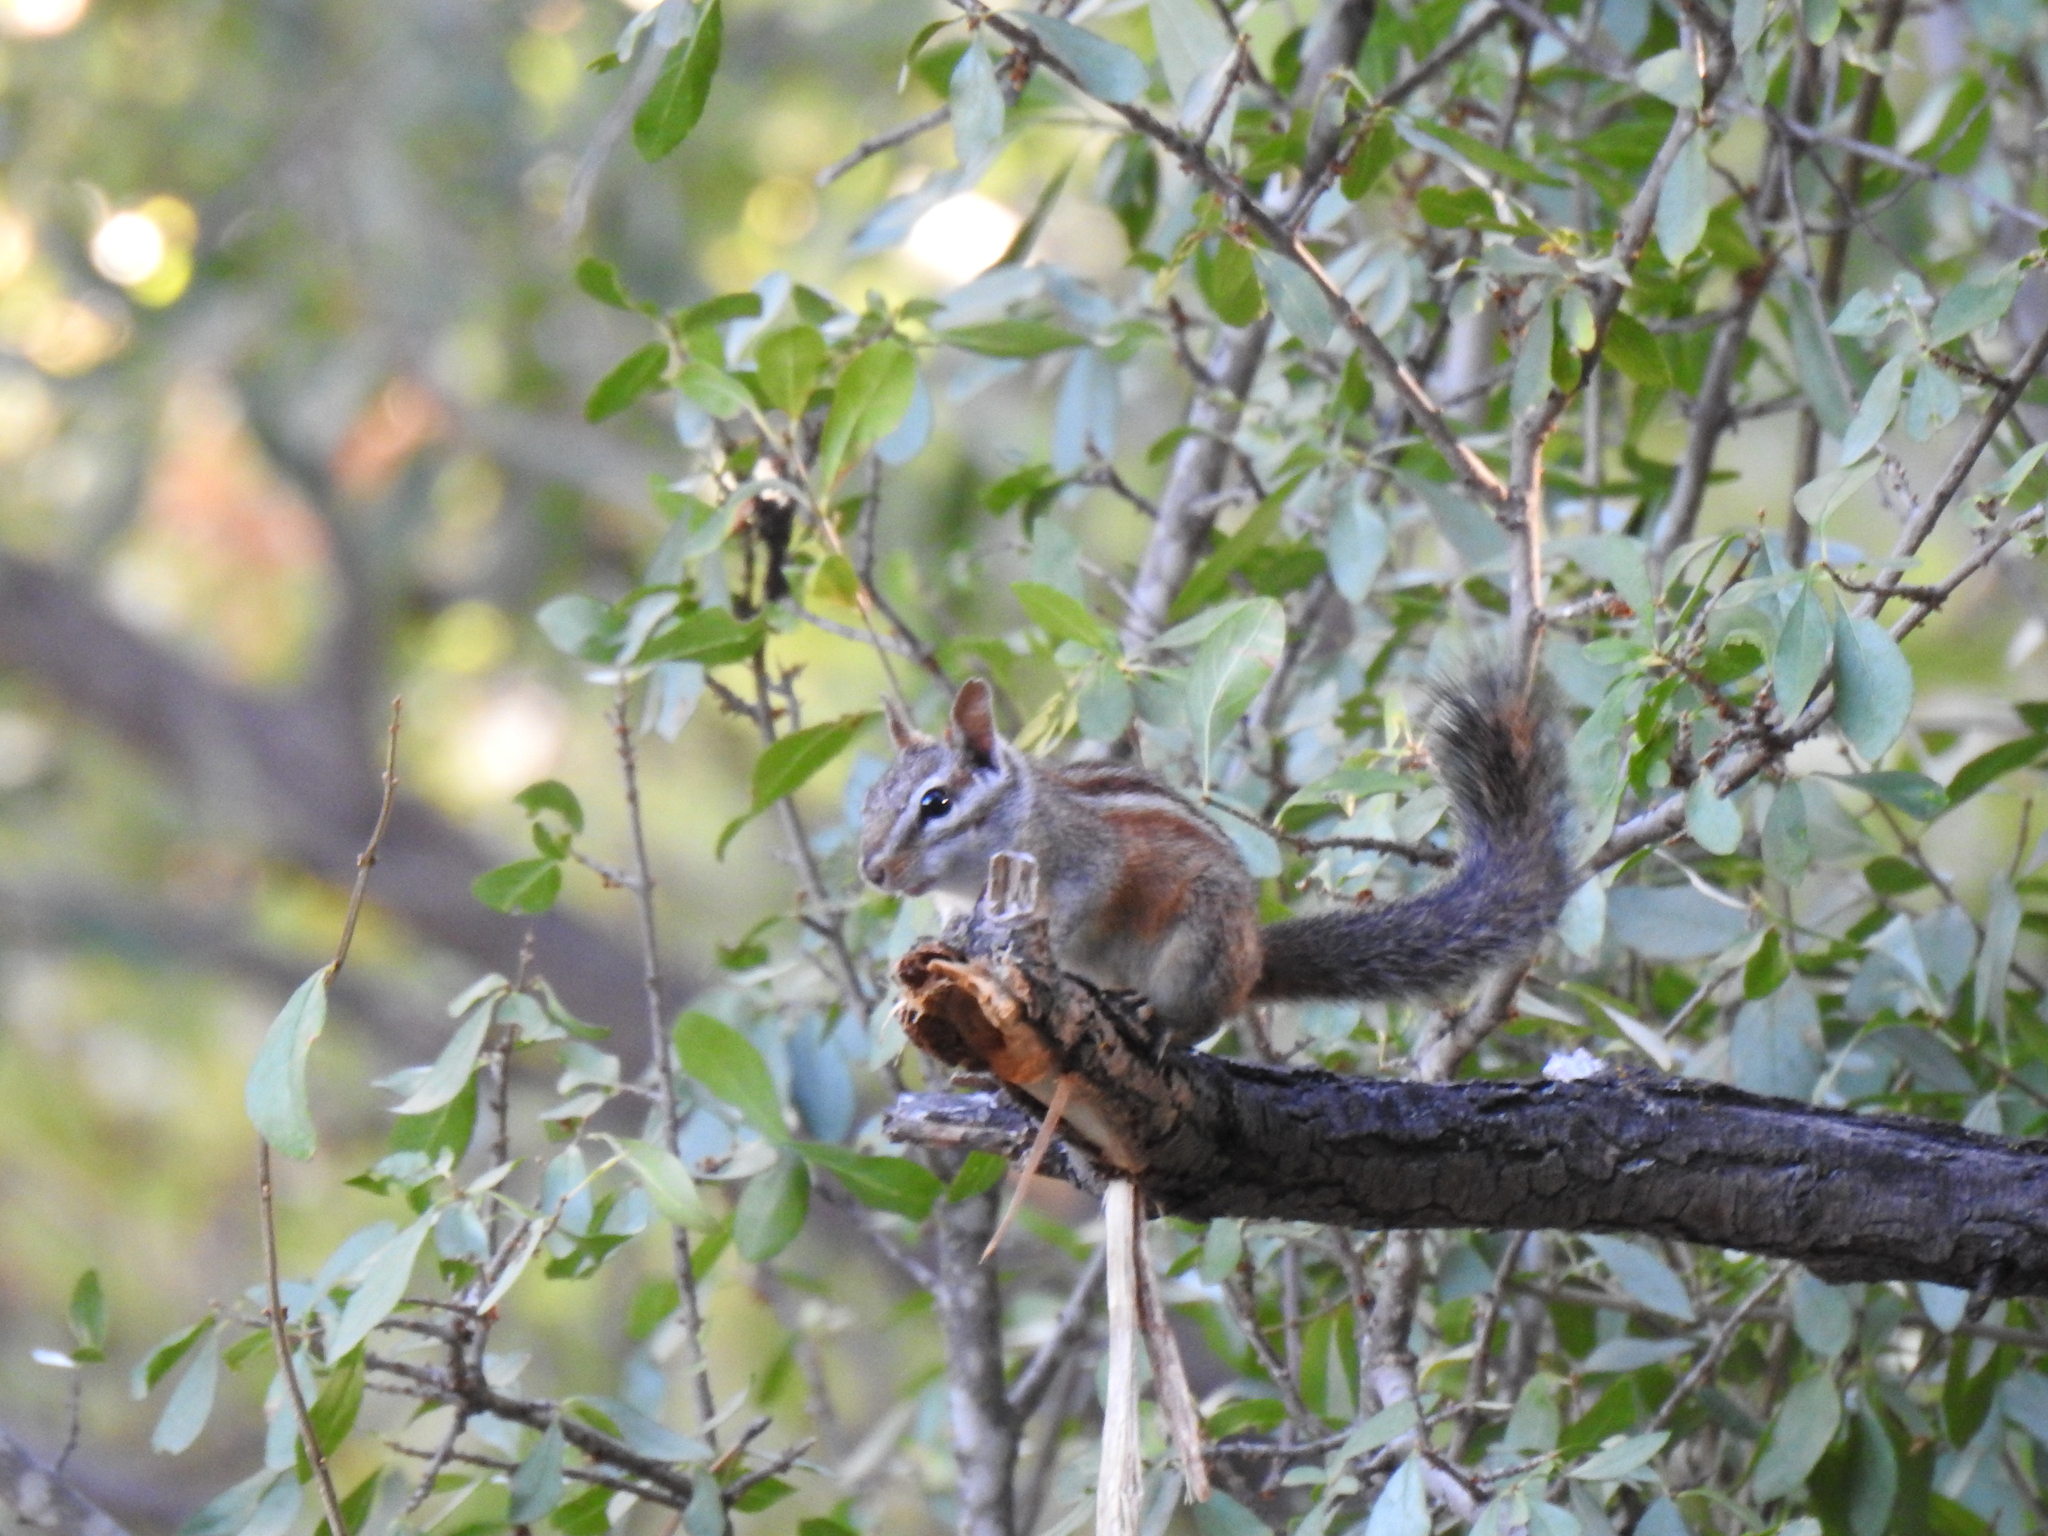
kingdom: Animalia
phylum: Chordata
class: Mammalia
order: Rodentia
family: Sciuridae
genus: Tamias
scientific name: Tamias merriami
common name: Merriam's chipmunk
